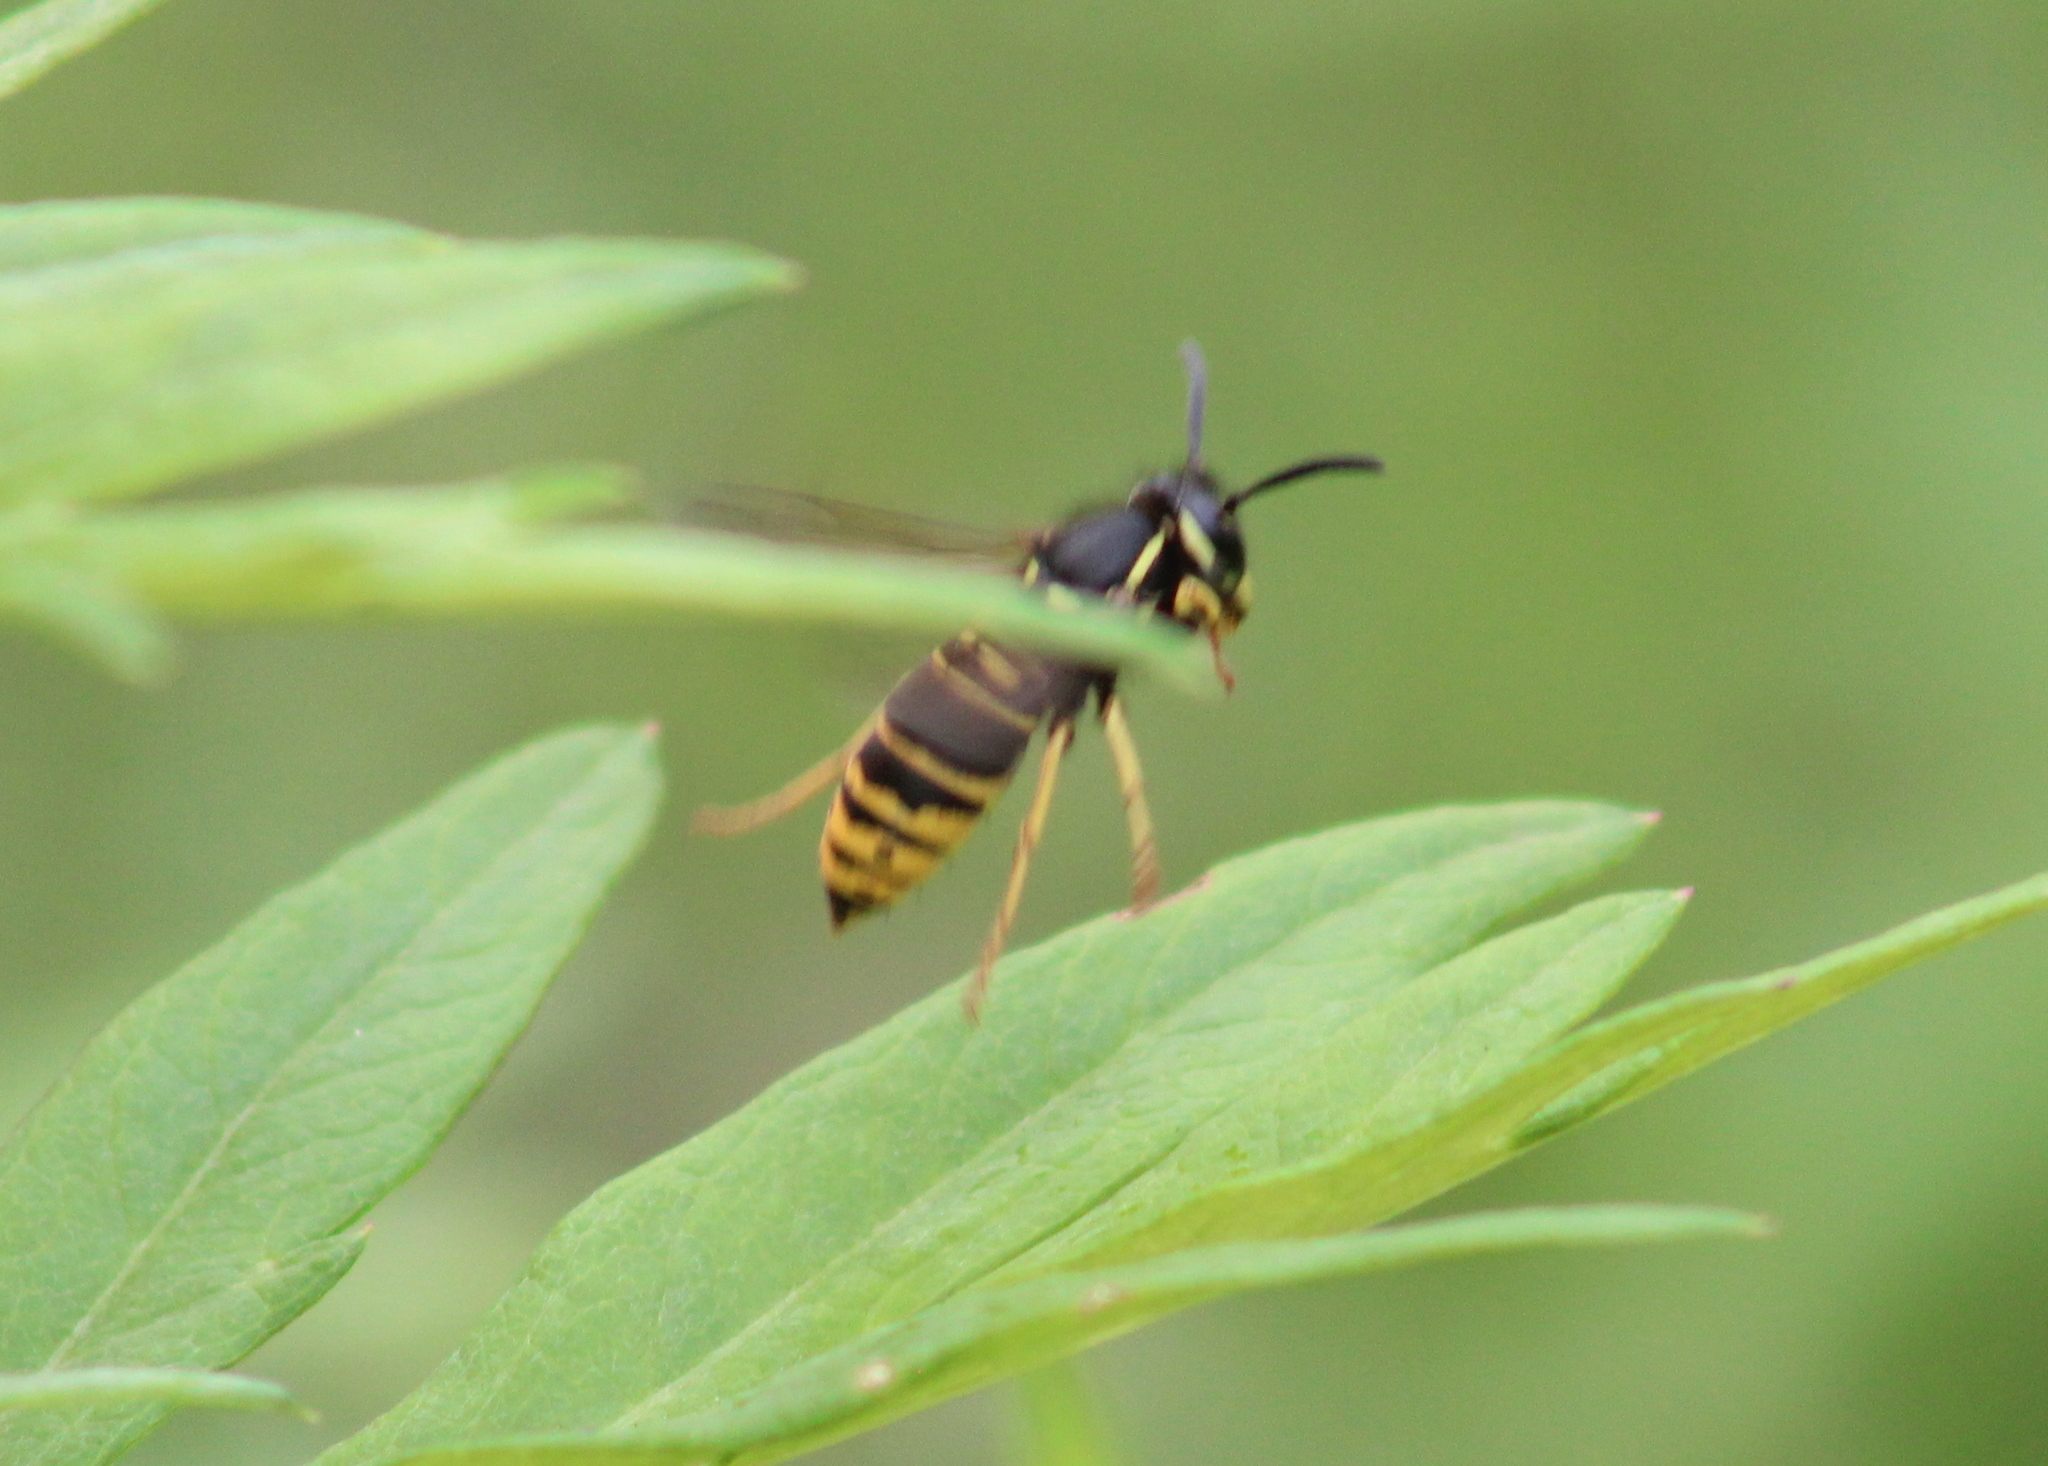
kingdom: Animalia
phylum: Arthropoda
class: Insecta
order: Hymenoptera
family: Vespidae
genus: Vespula
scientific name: Vespula vidua
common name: Widow yellowjacket
